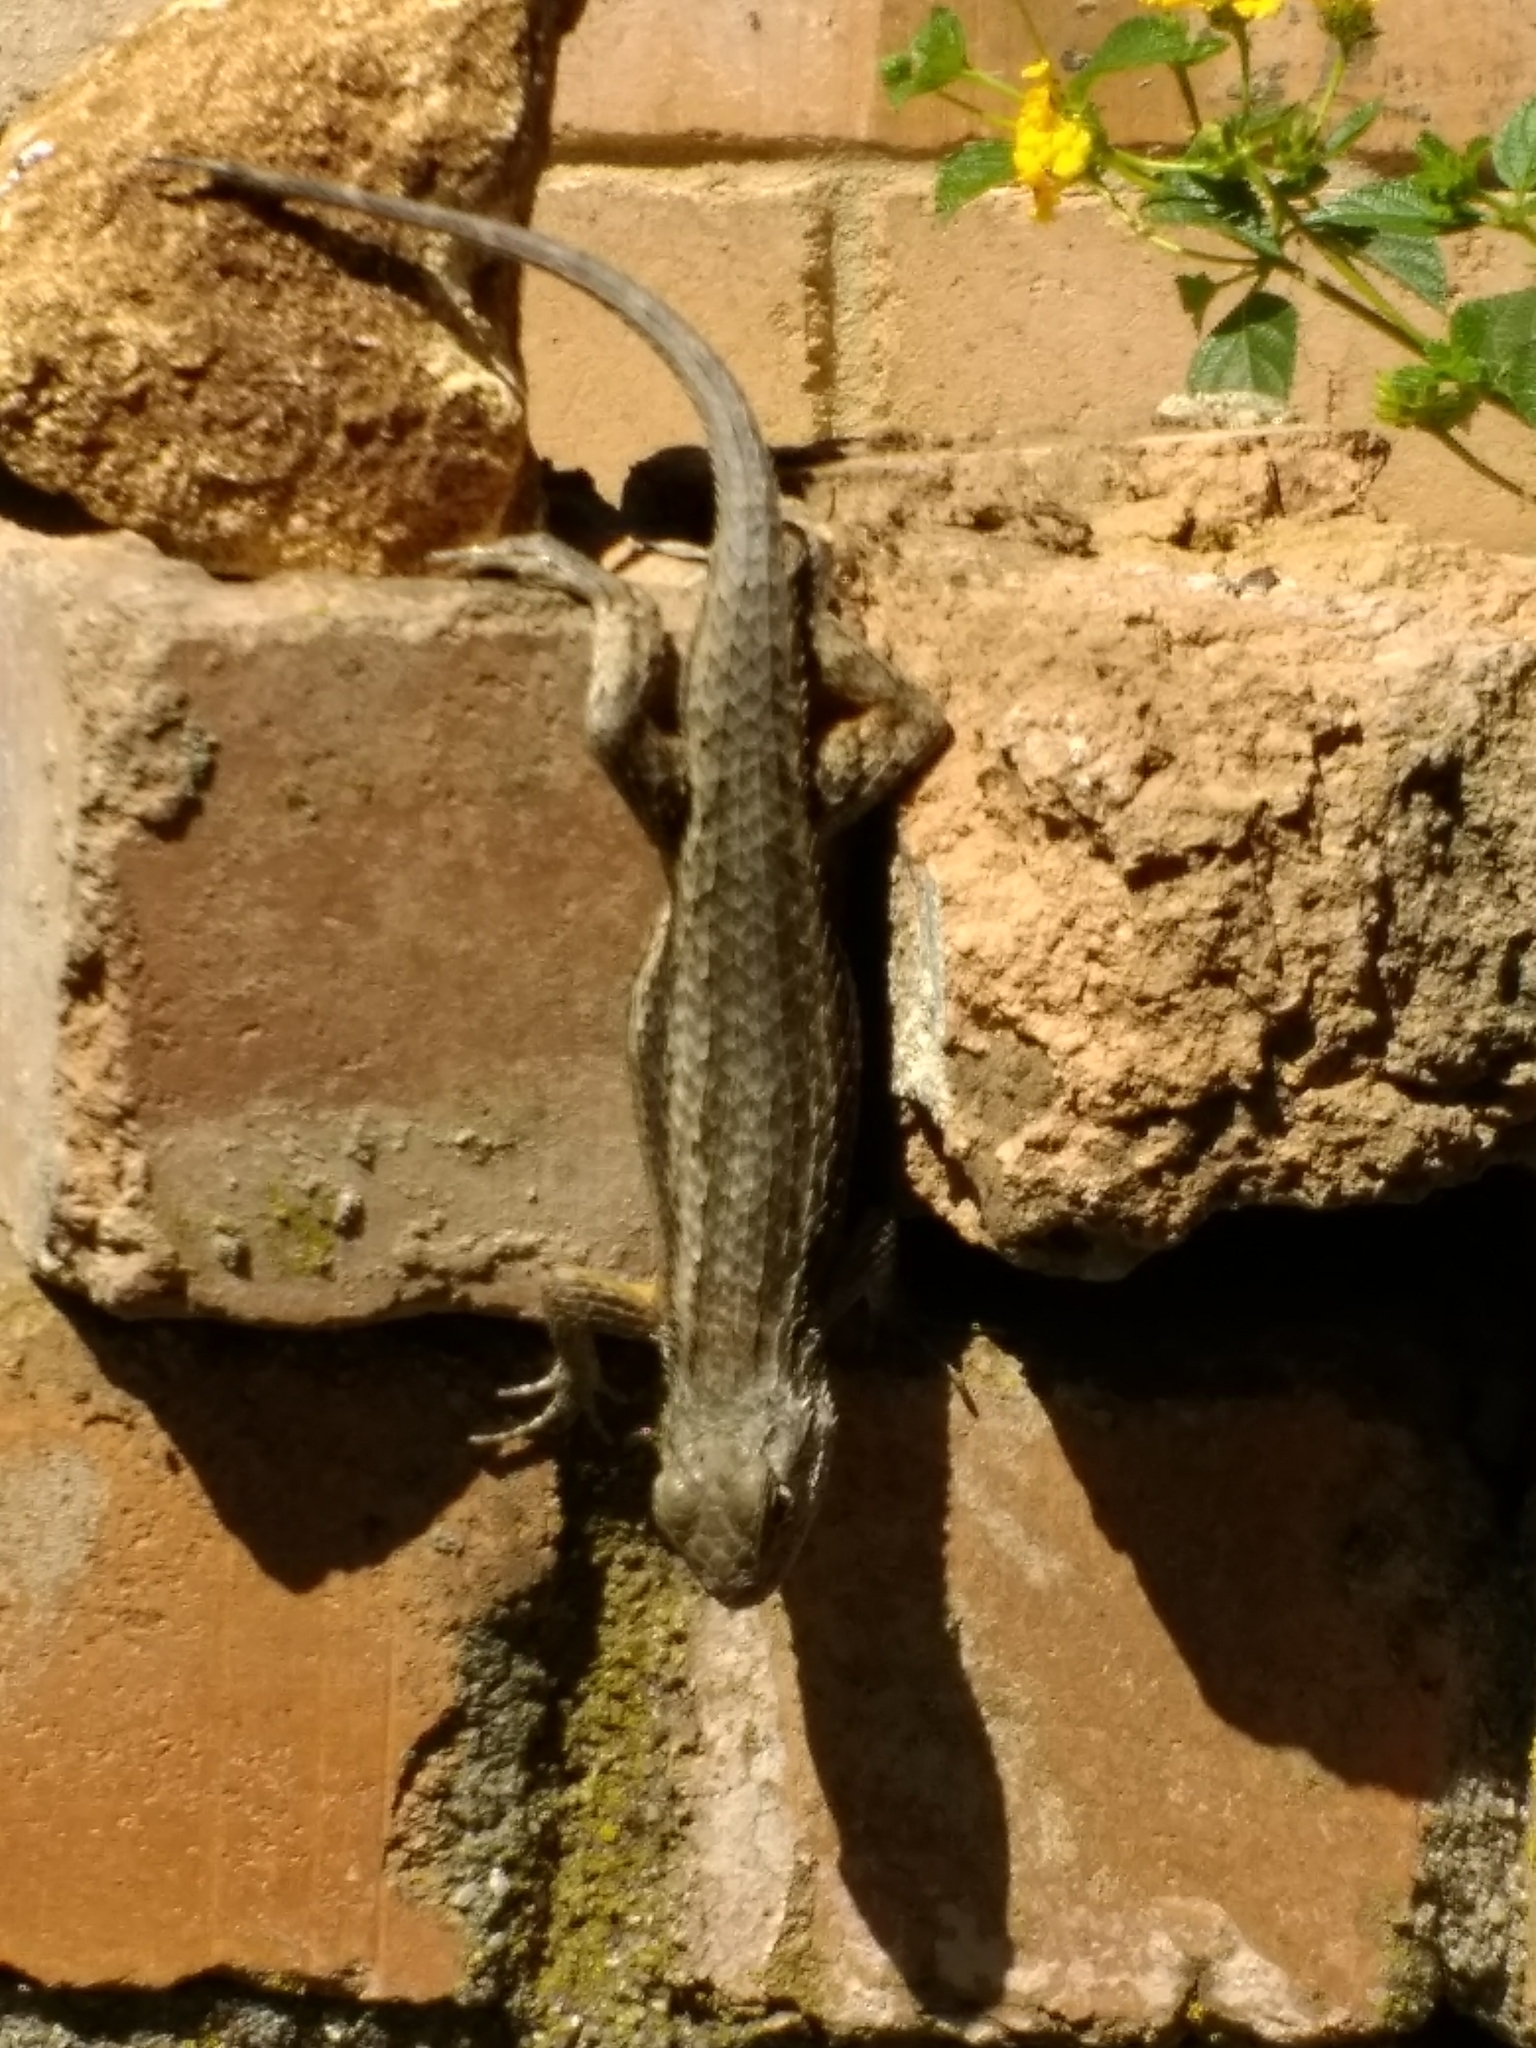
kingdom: Animalia
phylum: Chordata
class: Squamata
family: Phrynosomatidae
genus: Sceloporus
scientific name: Sceloporus olivaceus
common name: Texas spiny lizard
